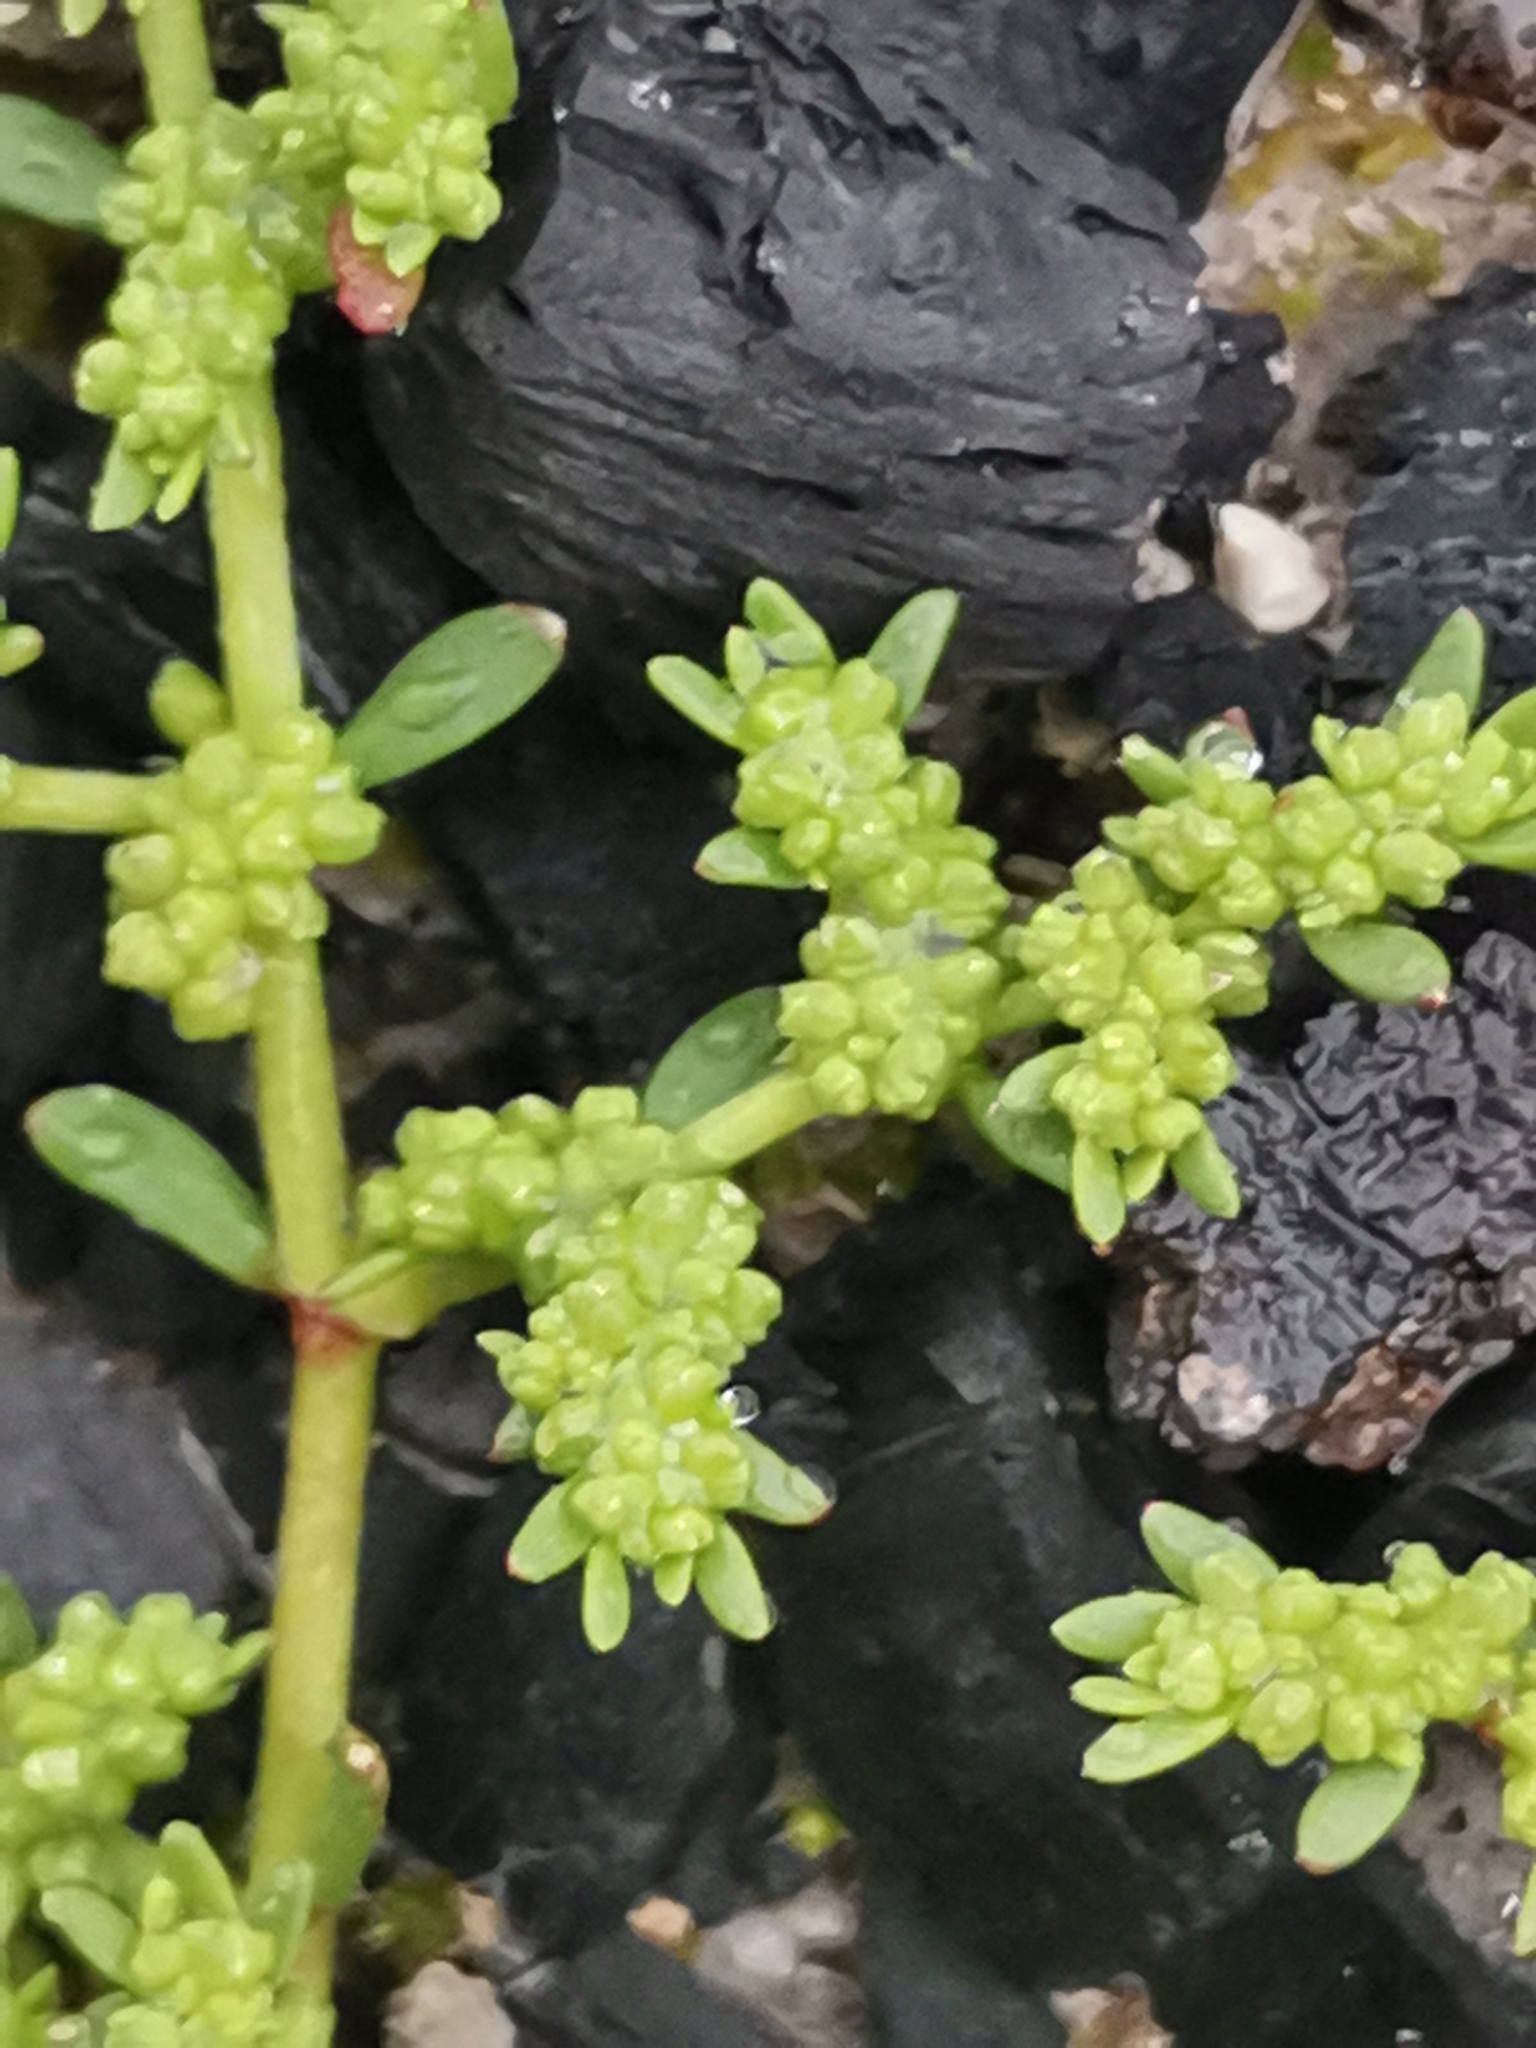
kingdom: Plantae
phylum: Tracheophyta
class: Magnoliopsida
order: Caryophyllales
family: Caryophyllaceae
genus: Herniaria
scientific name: Herniaria glabra
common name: Smooth rupturewort
